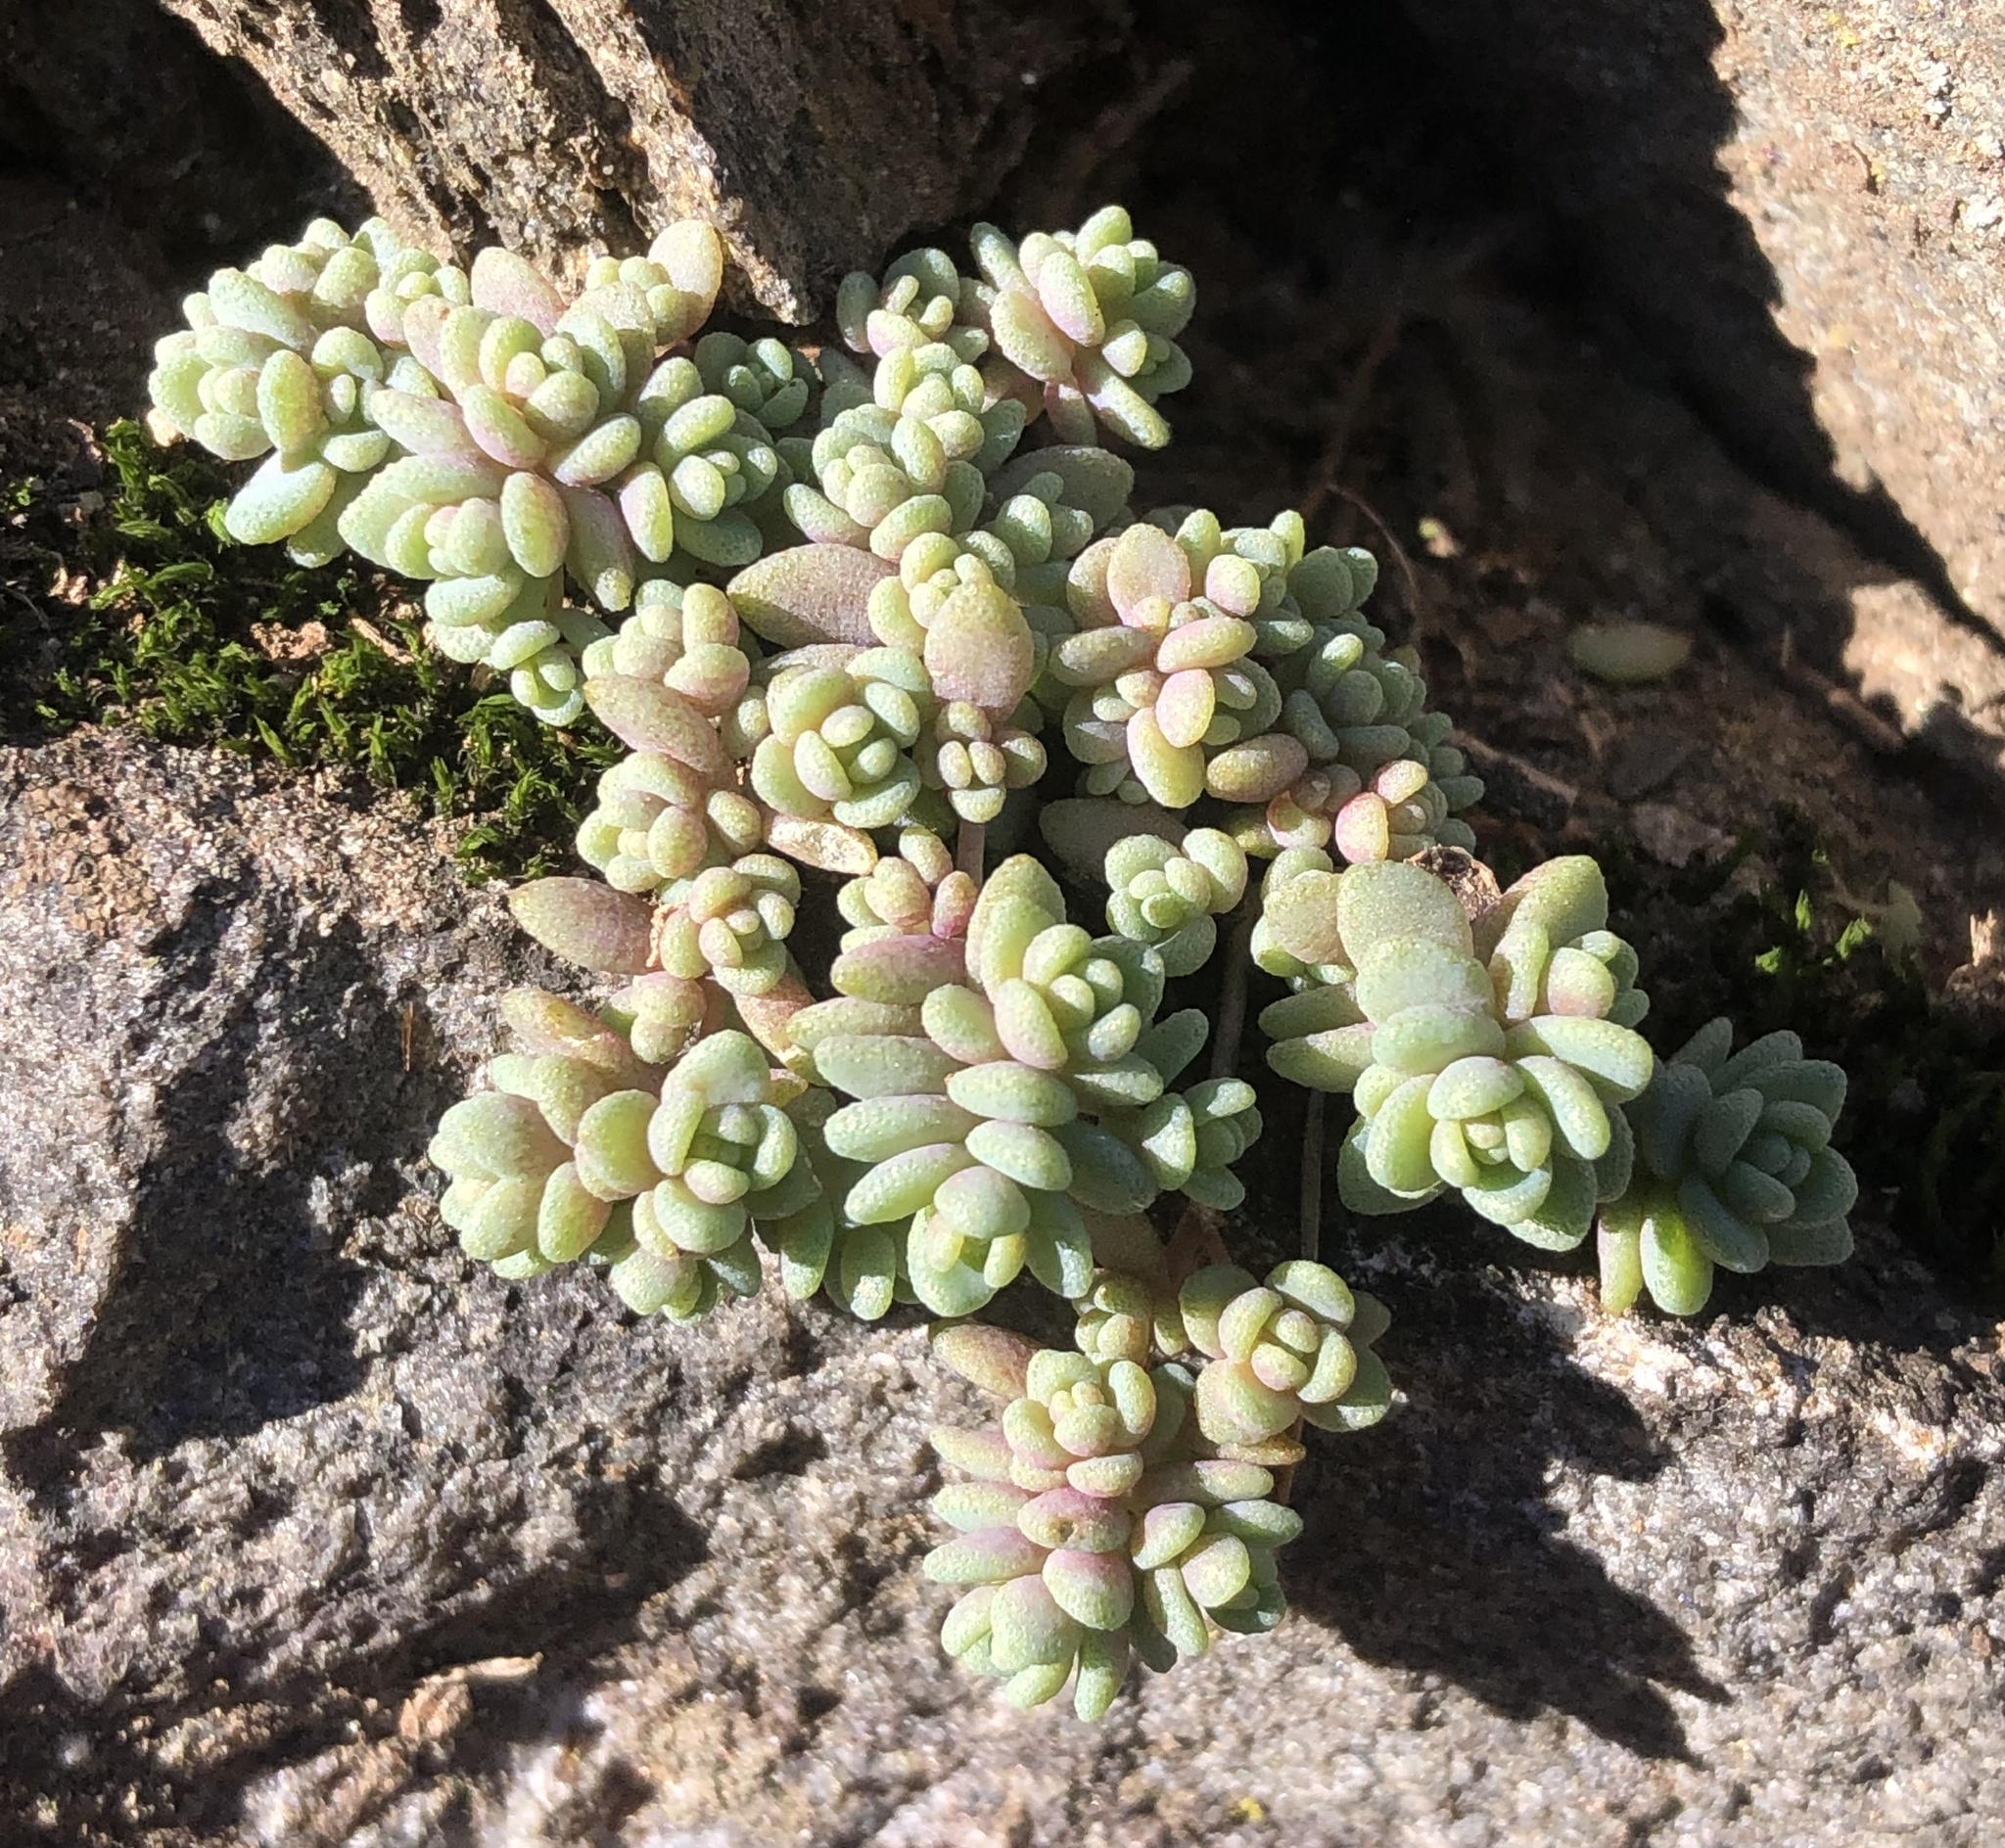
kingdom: Plantae
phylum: Tracheophyta
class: Magnoliopsida
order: Saxifragales
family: Crassulaceae
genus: Sedum
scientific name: Sedum dasyphyllum
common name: Thick-leaf stonecrop
